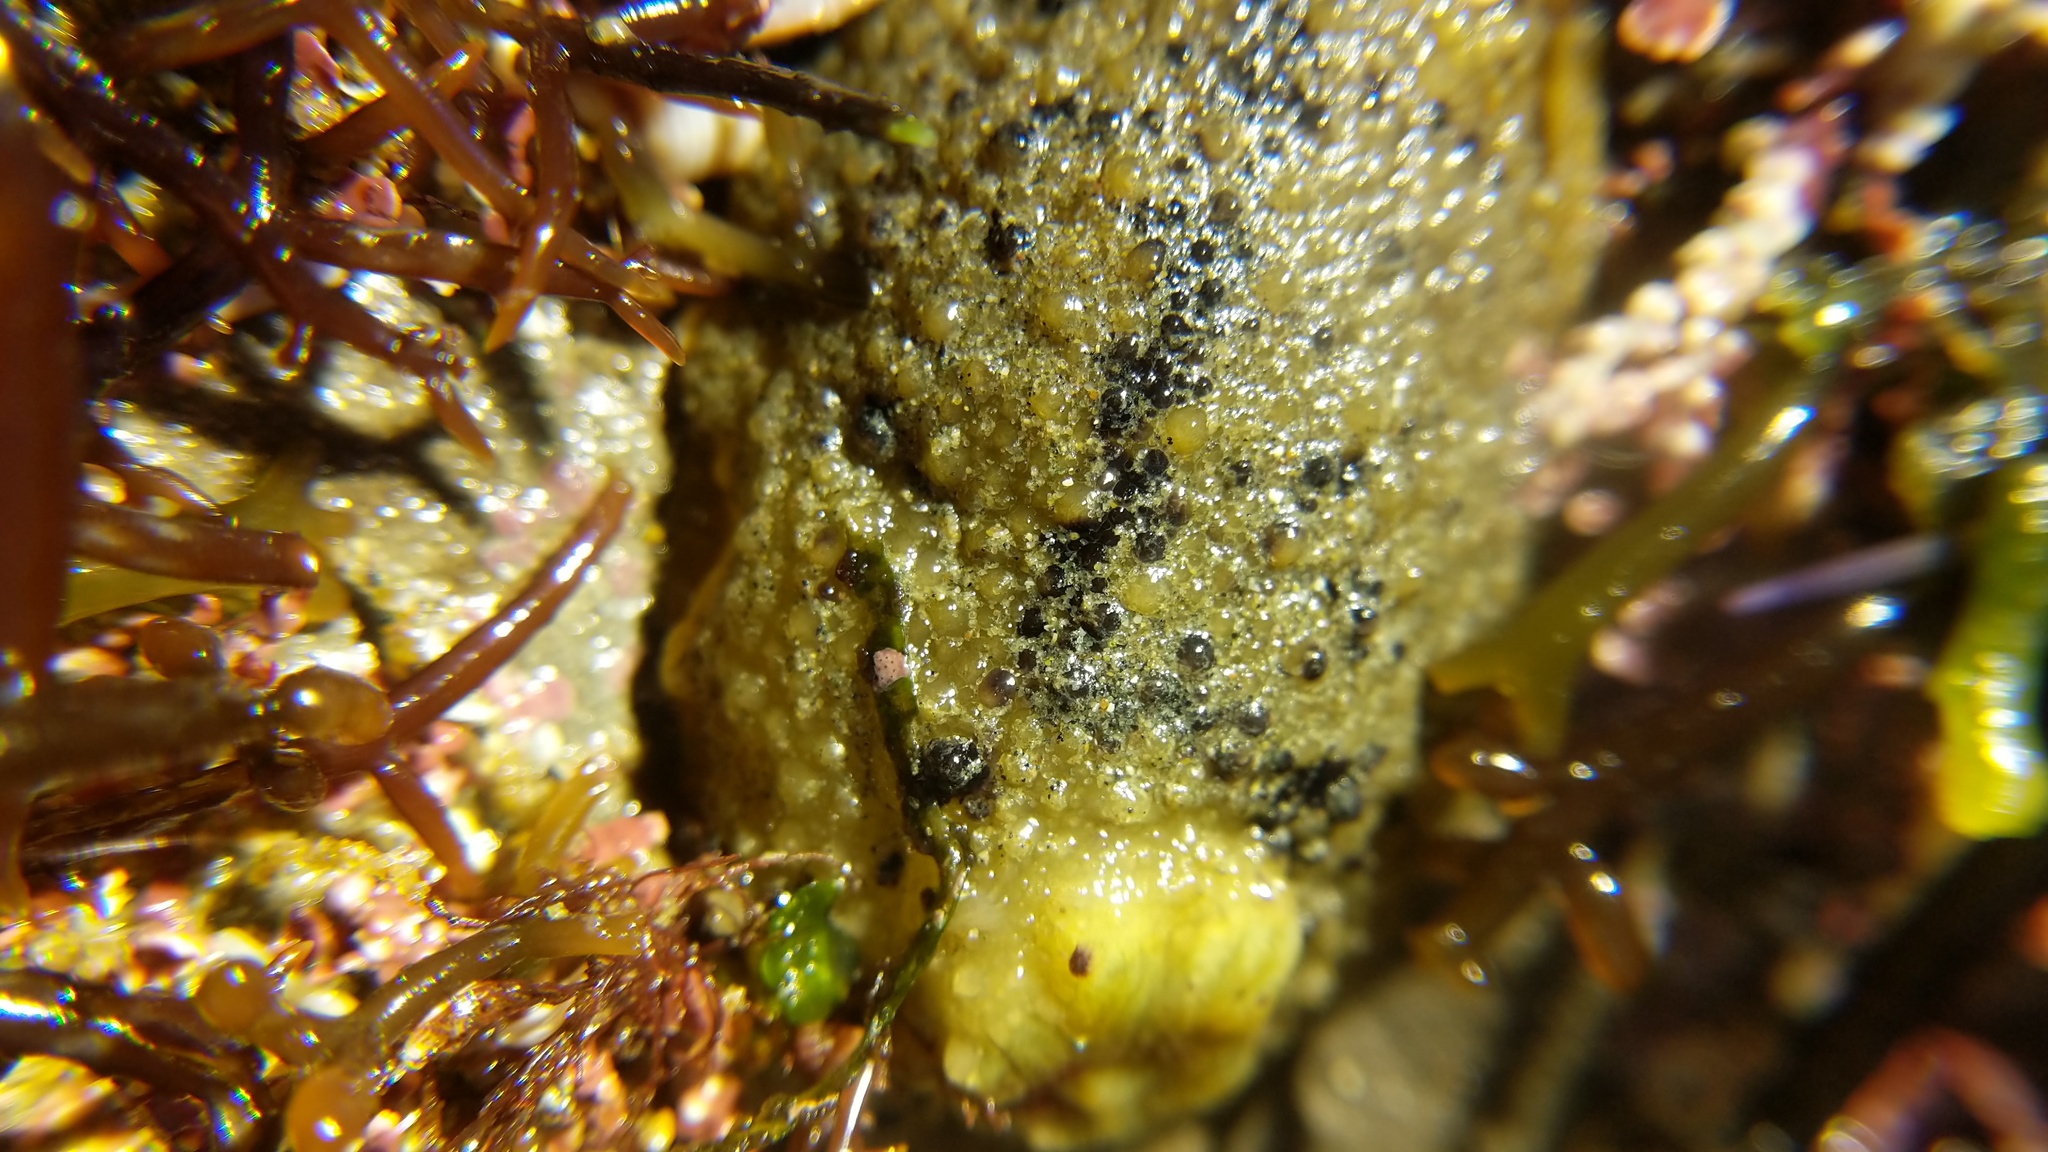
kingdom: Animalia
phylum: Mollusca
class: Gastropoda
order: Nudibranchia
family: Dorididae
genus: Doris
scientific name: Doris montereyensis
